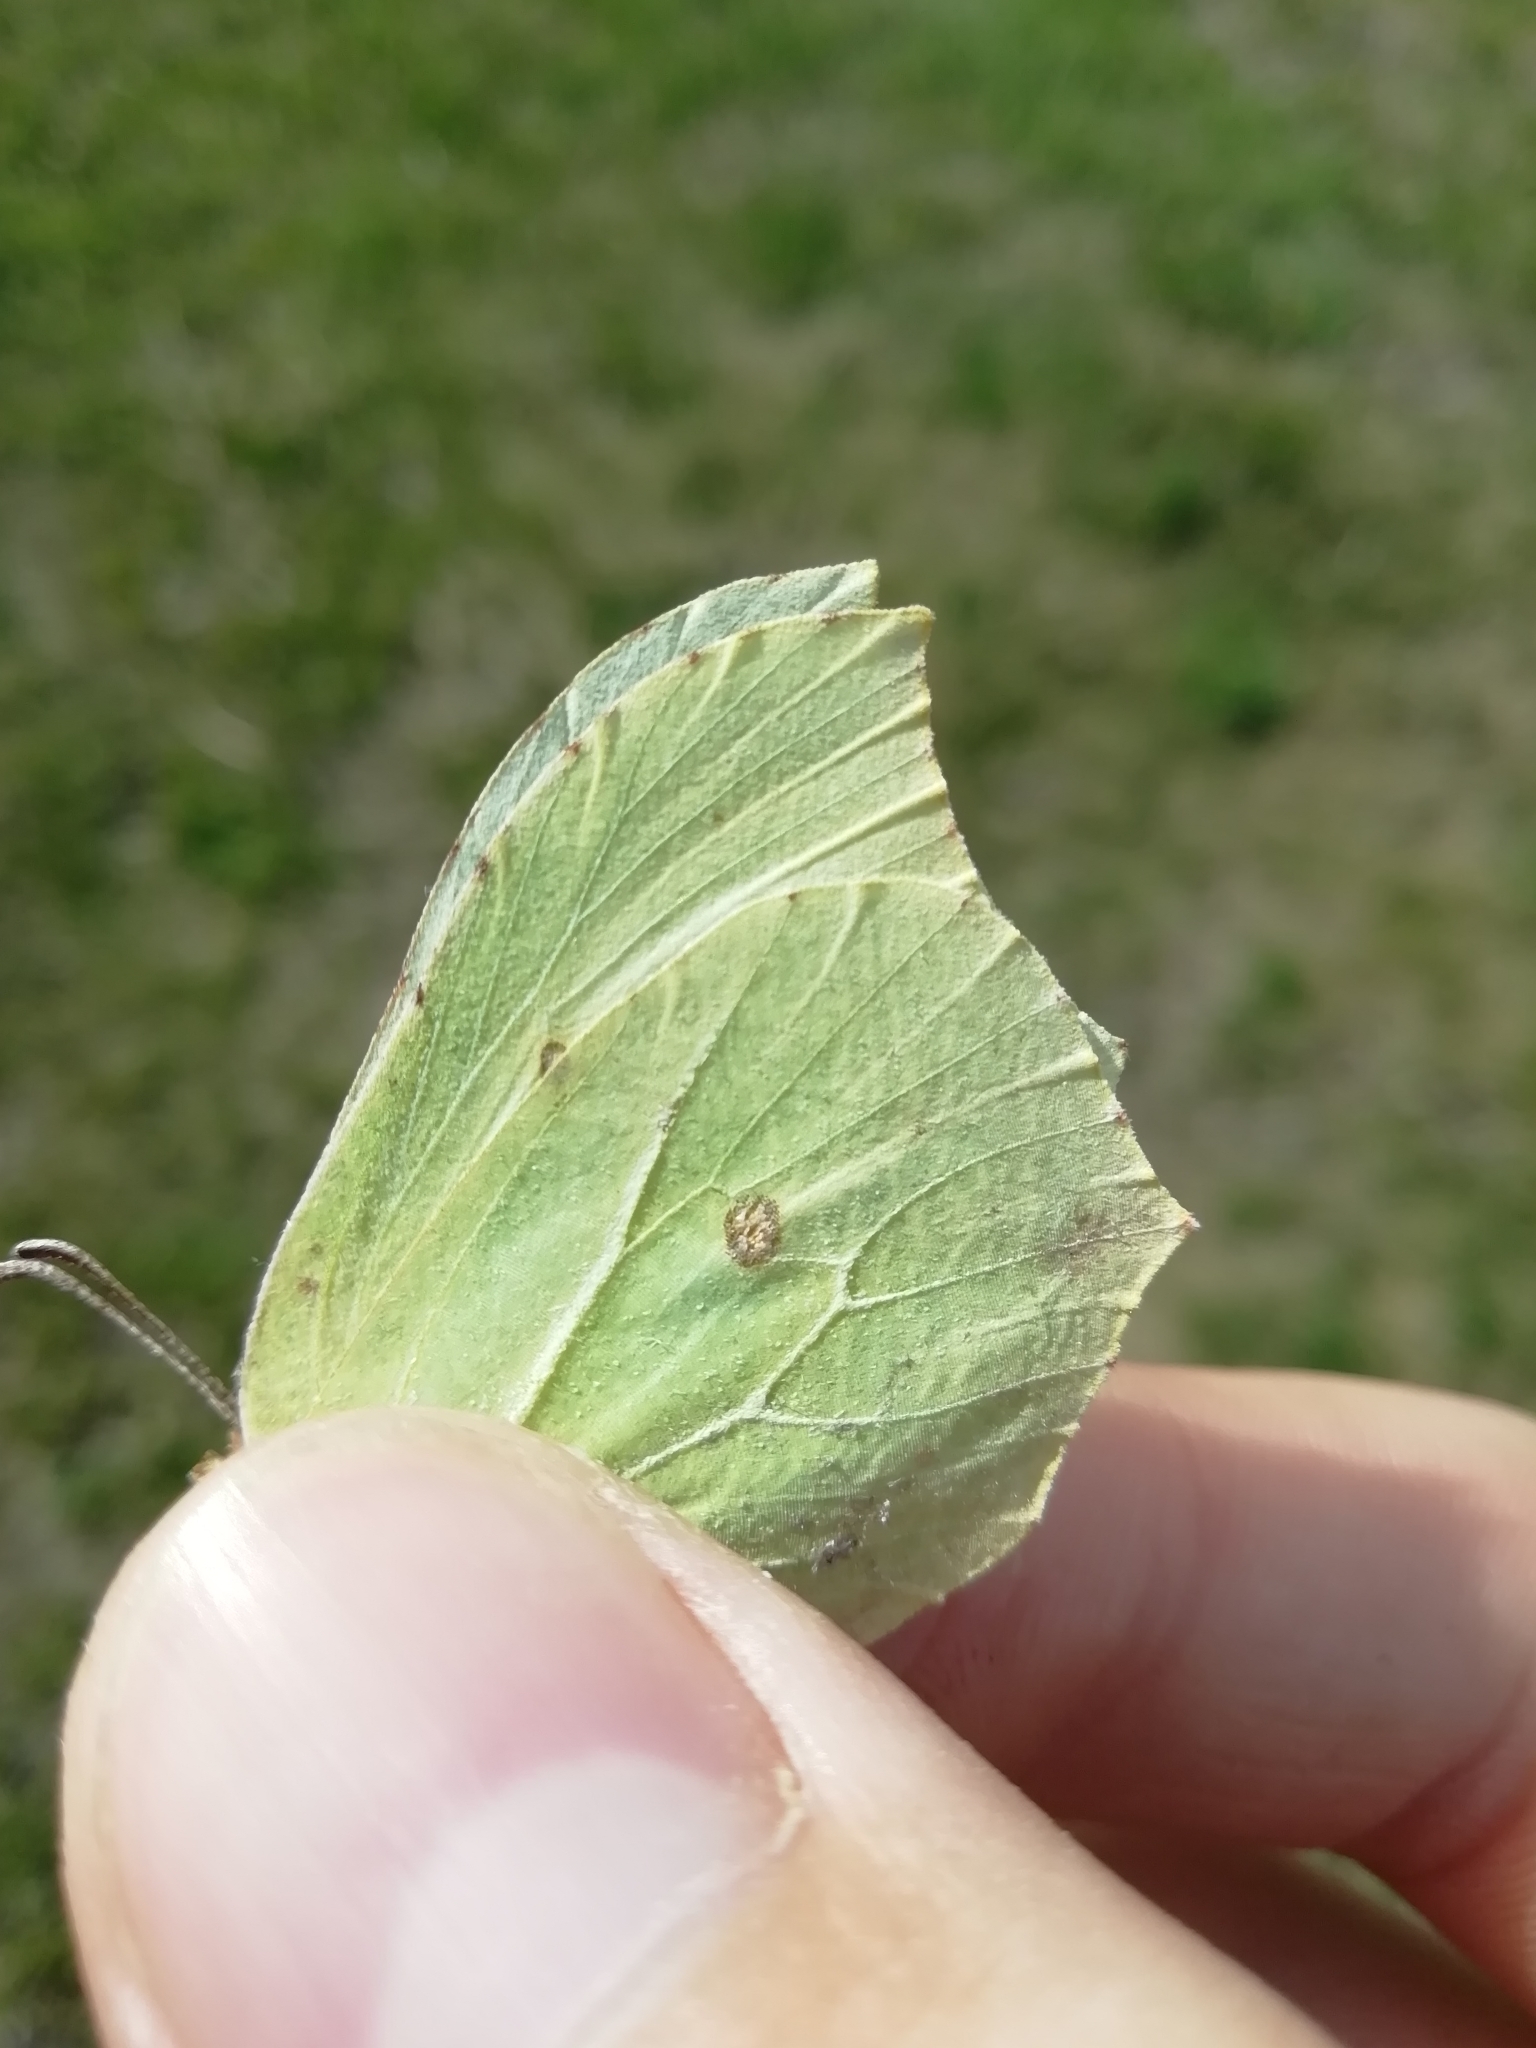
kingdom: Animalia
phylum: Arthropoda
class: Insecta
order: Lepidoptera
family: Pieridae
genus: Gonepteryx
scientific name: Gonepteryx rhamni
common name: Brimstone
